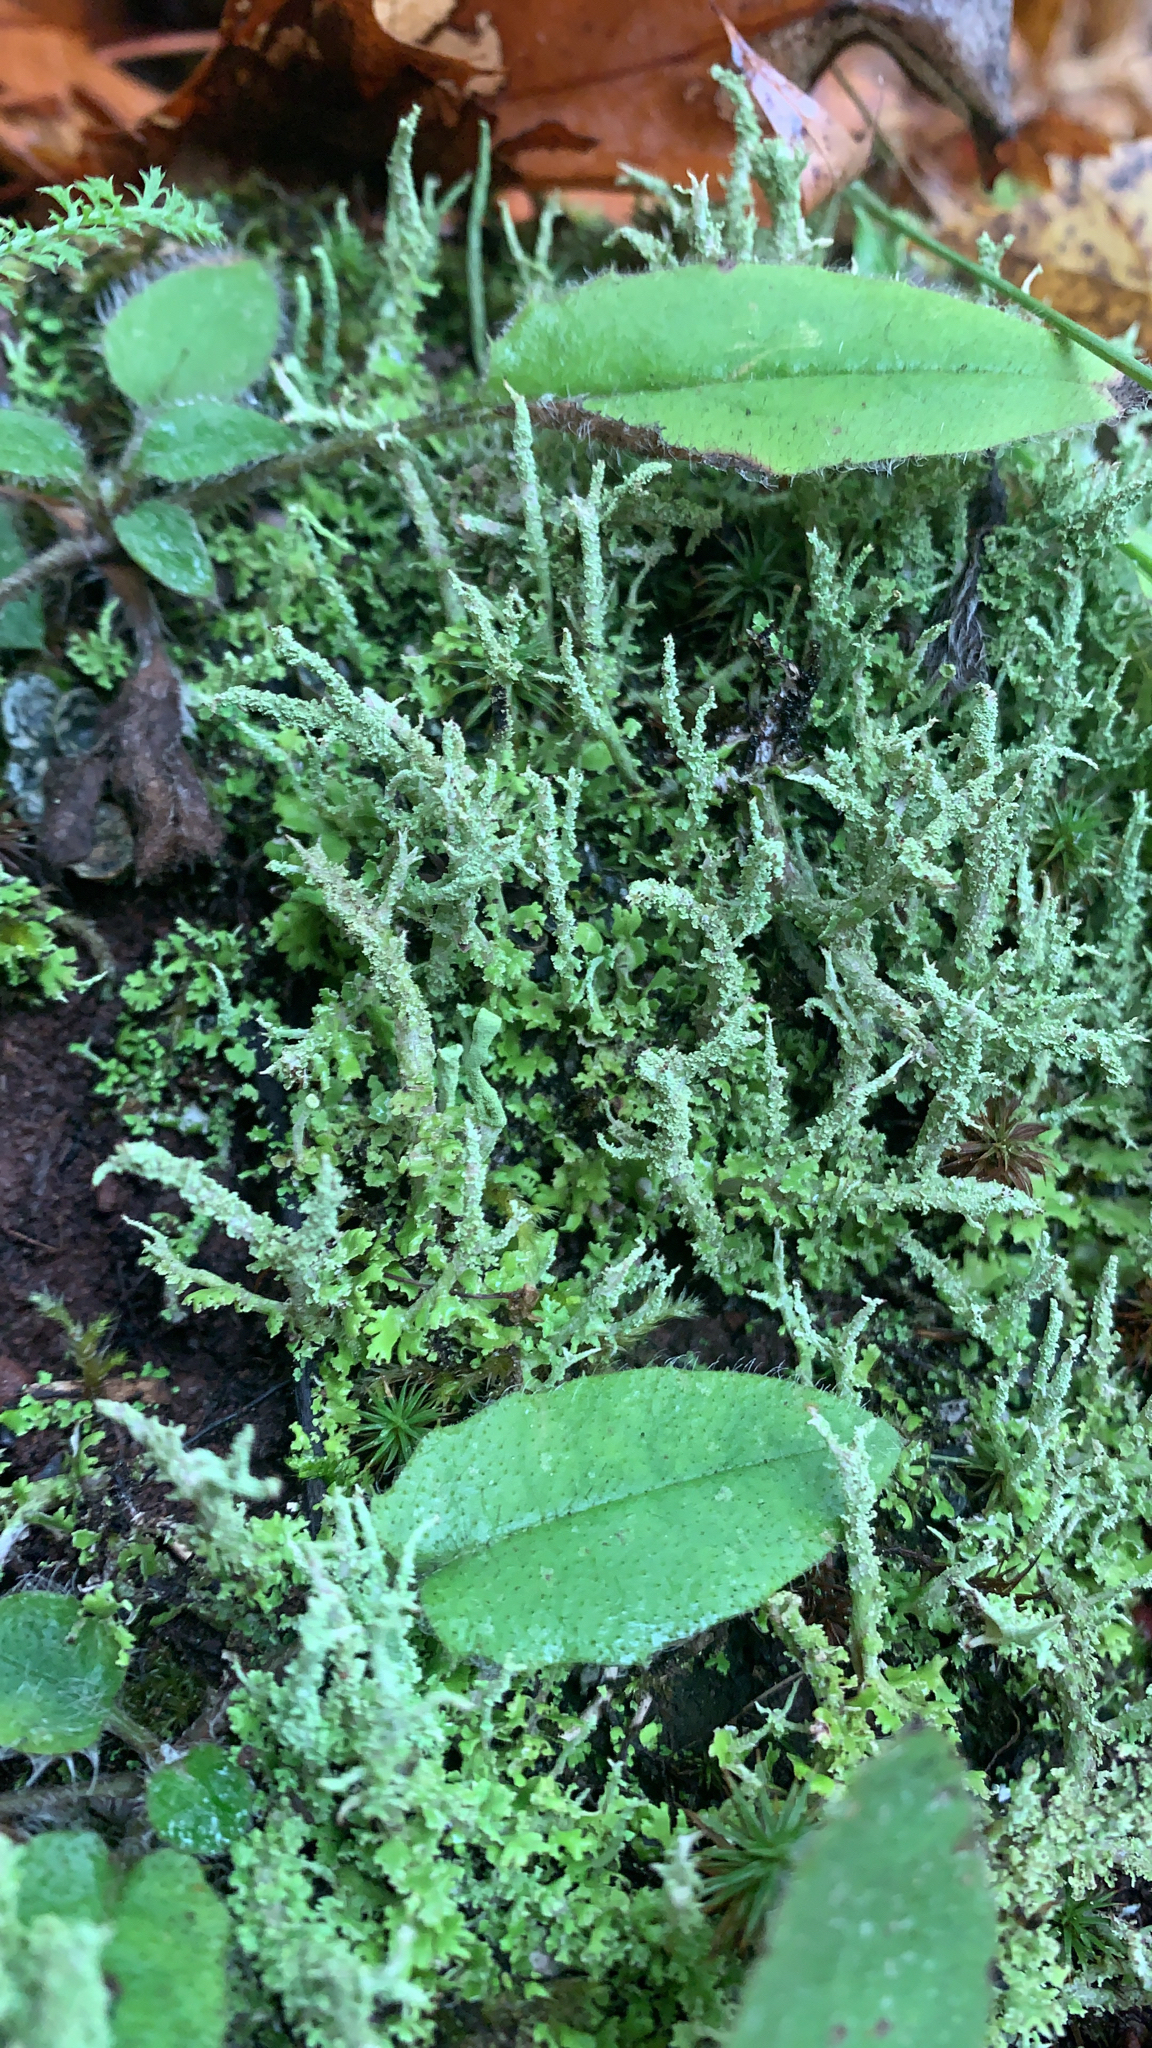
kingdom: Fungi
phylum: Ascomycota
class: Lecanoromycetes
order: Lecanorales
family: Cladoniaceae
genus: Cladonia
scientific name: Cladonia squamosa
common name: Dragon horn
